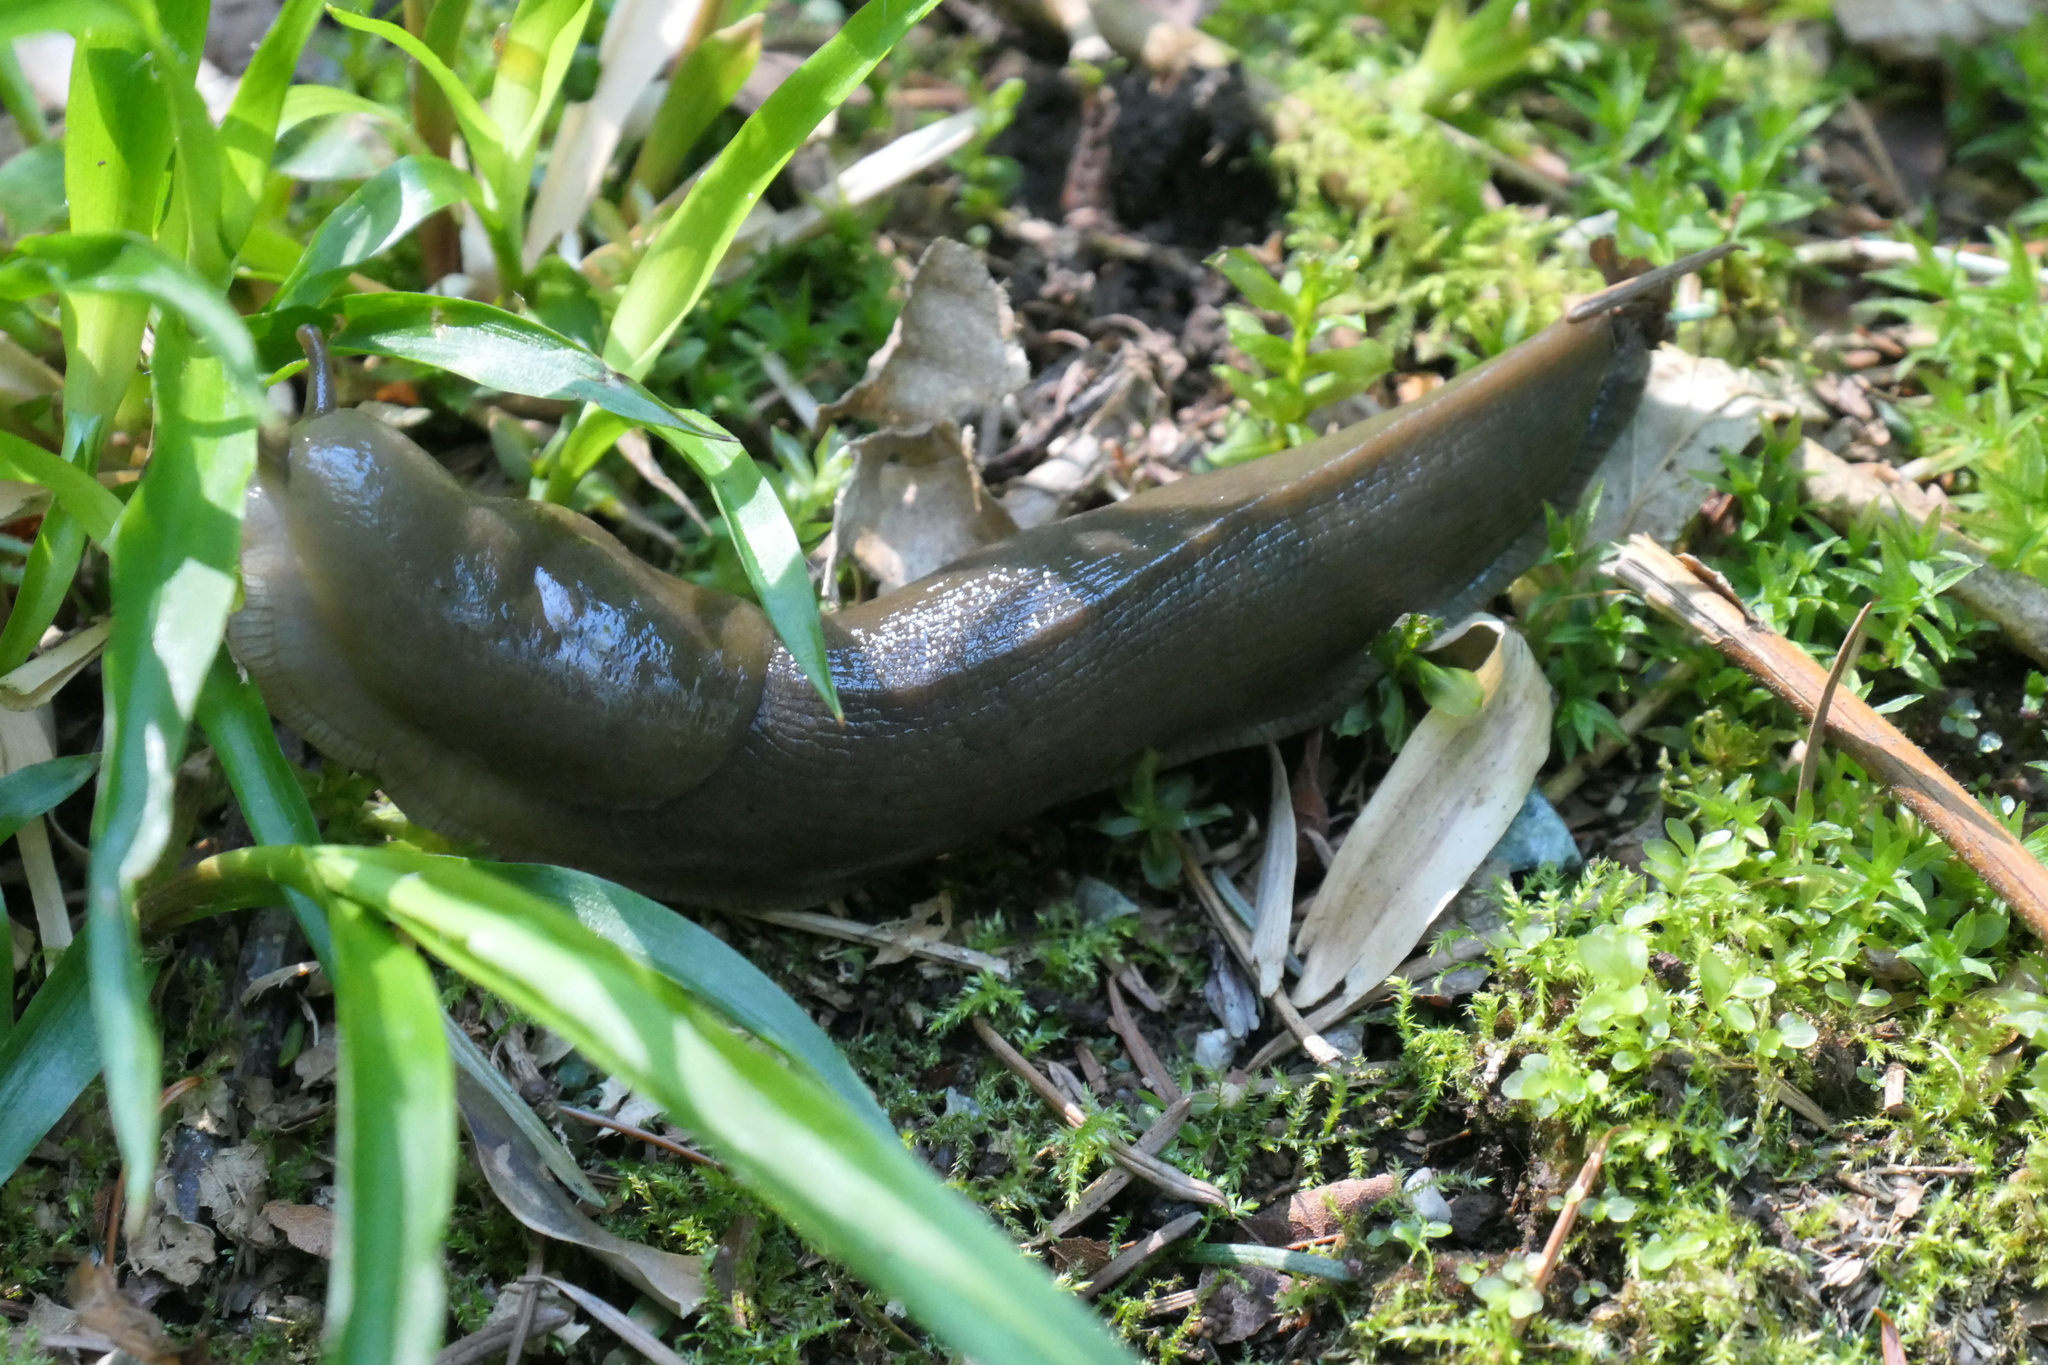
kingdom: Animalia
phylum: Mollusca
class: Gastropoda
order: Stylommatophora
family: Ariolimacidae
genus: Ariolimax
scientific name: Ariolimax columbianus
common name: Pacific banana slug
